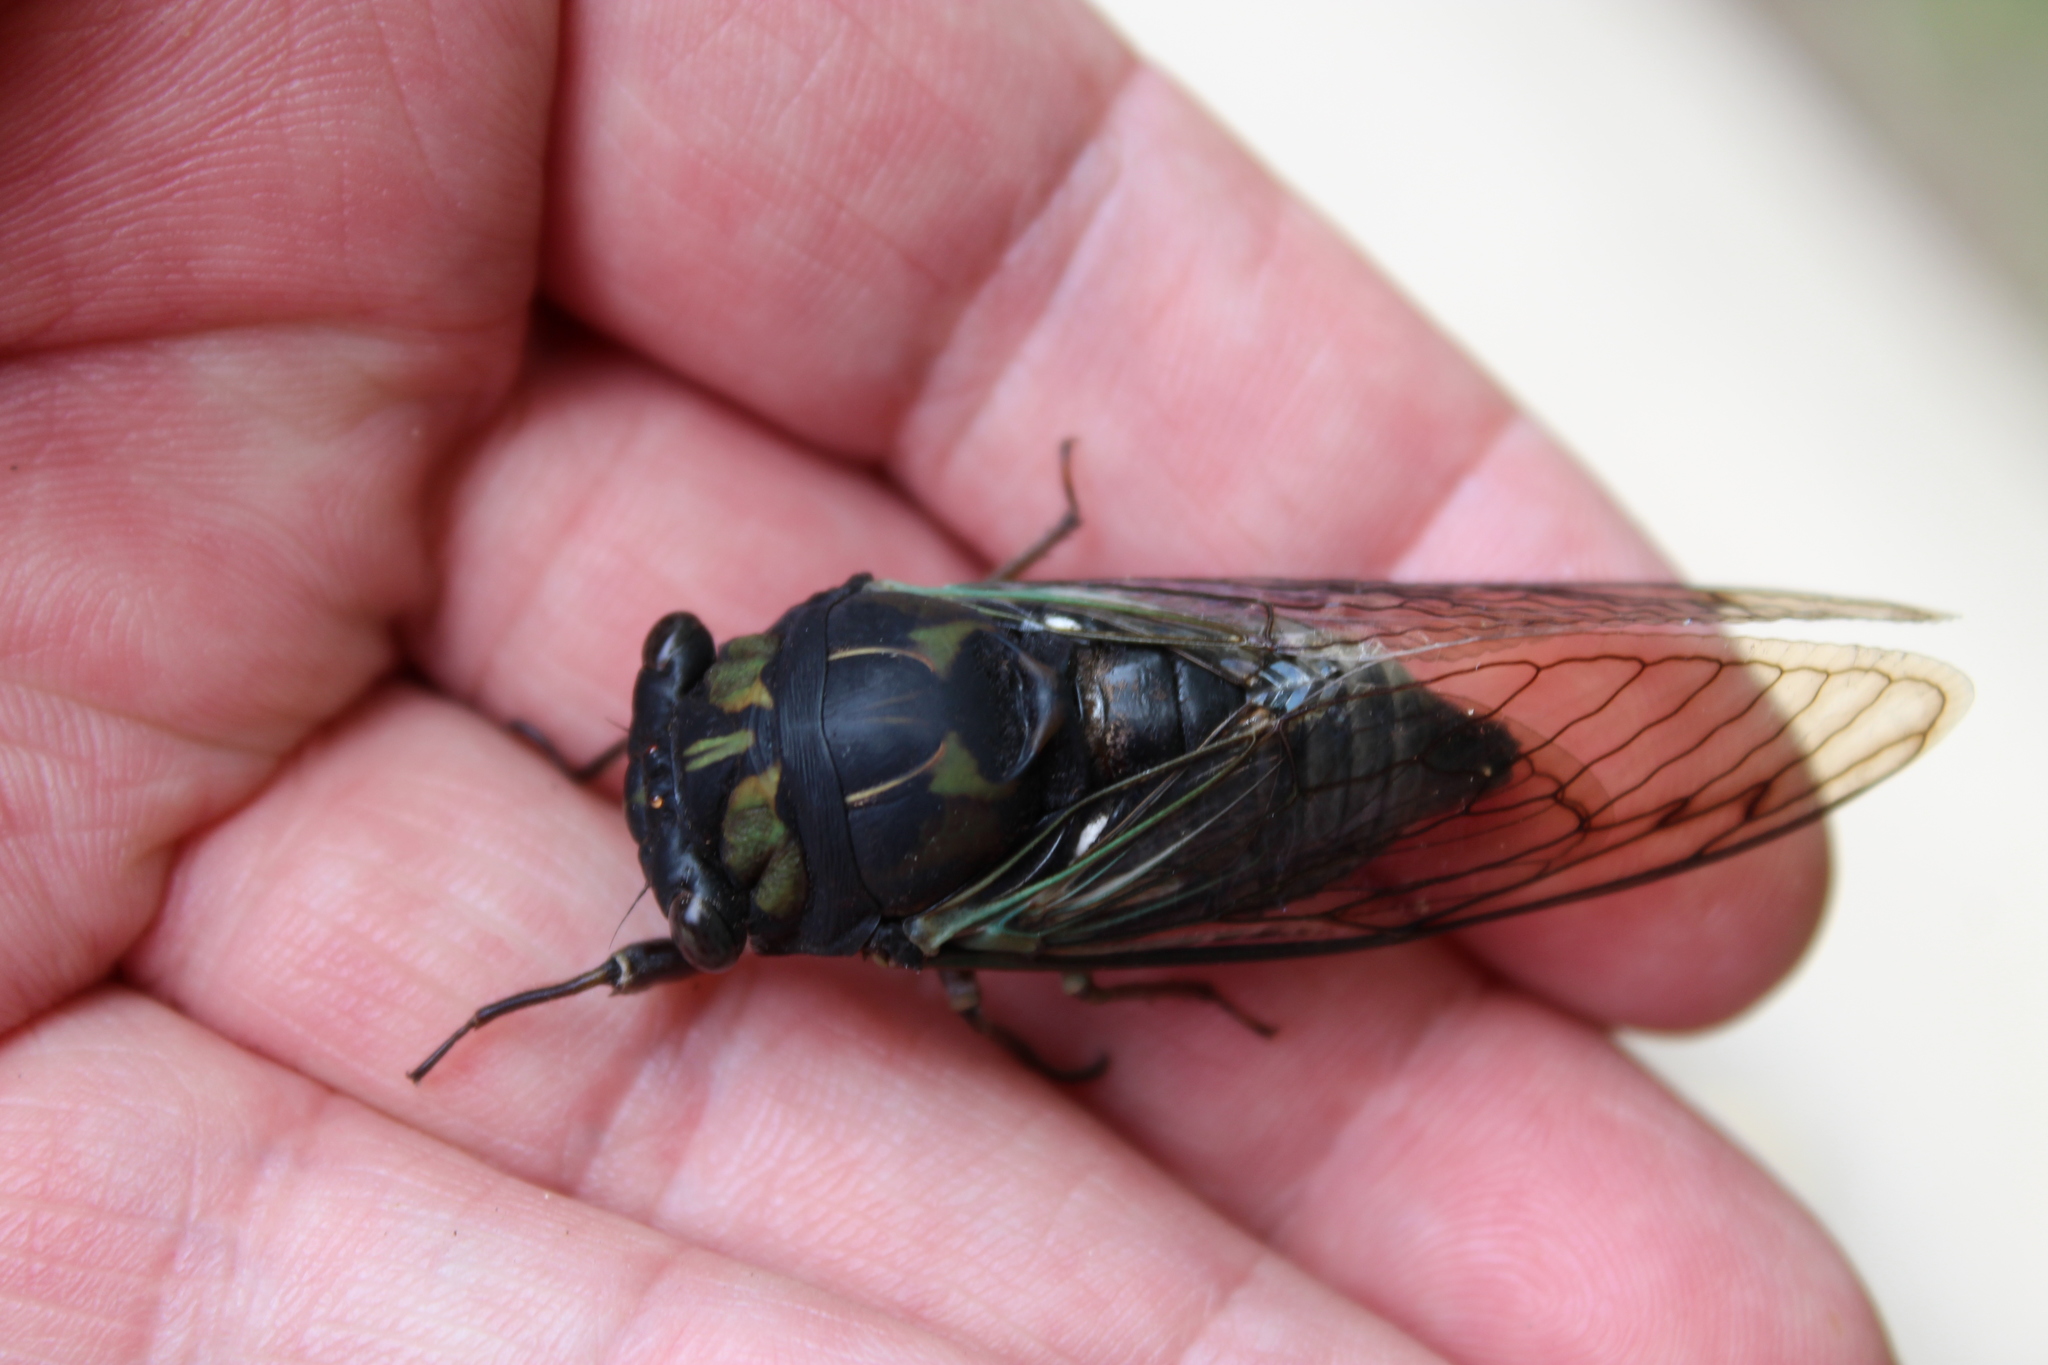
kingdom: Animalia
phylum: Arthropoda
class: Insecta
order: Hemiptera
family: Cicadidae
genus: Neotibicen
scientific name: Neotibicen lyricen
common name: Lyric cicada
